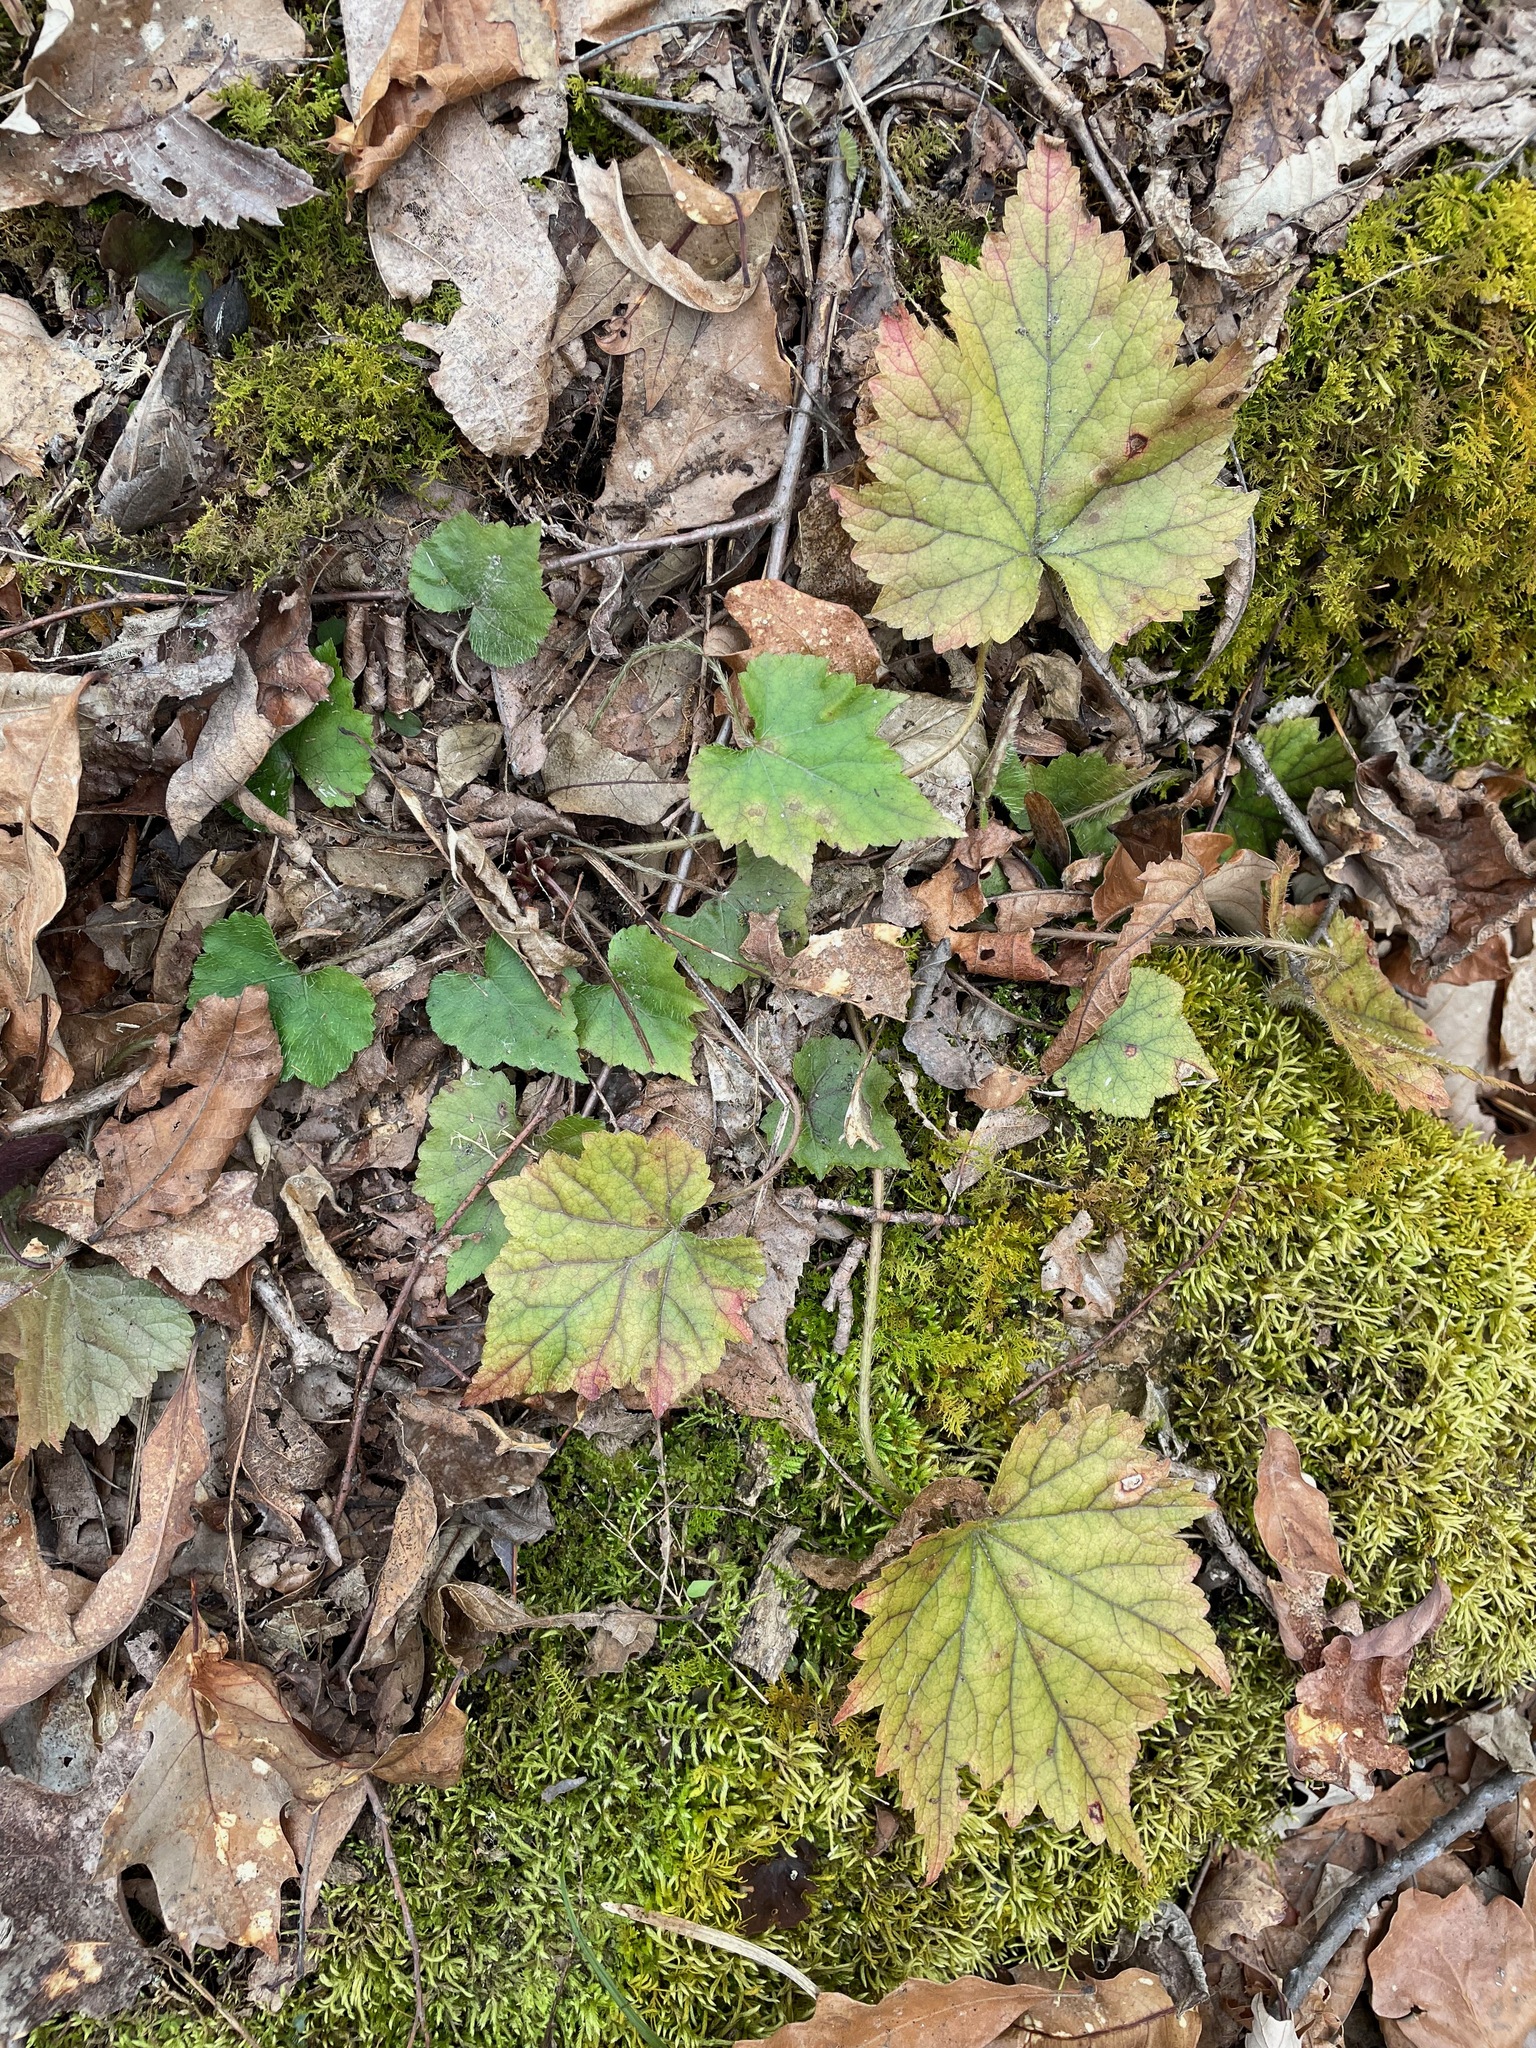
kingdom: Plantae
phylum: Tracheophyta
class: Magnoliopsida
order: Saxifragales
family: Saxifragaceae
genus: Mitella
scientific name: Mitella diphylla
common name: Coolwort
